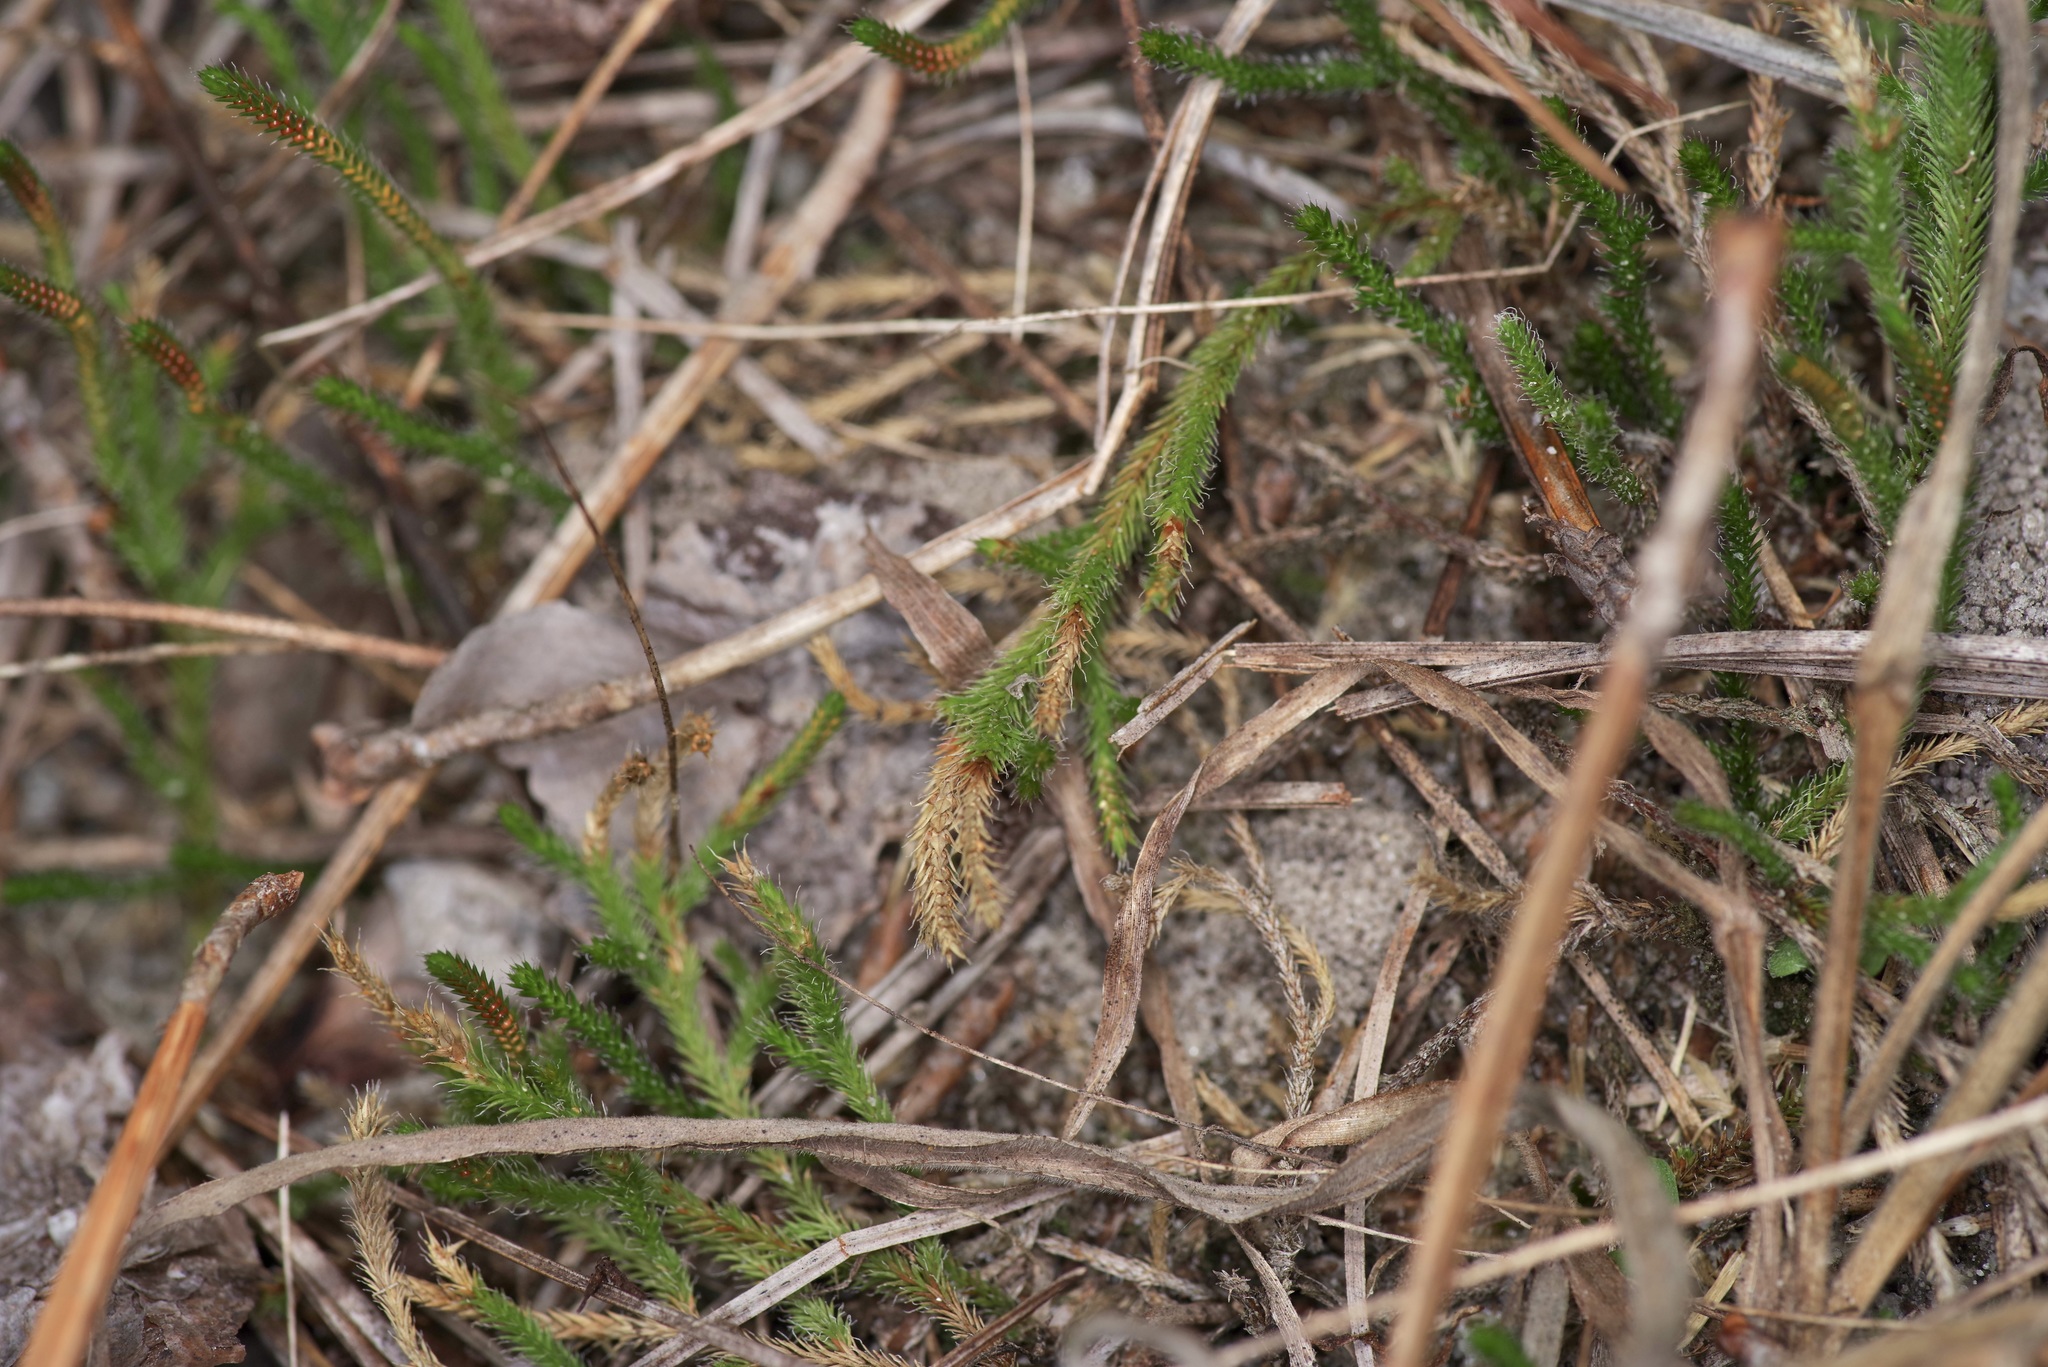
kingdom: Plantae
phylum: Tracheophyta
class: Lycopodiopsida
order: Selaginellales
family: Selaginellaceae
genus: Selaginella
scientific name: Selaginella corallina
